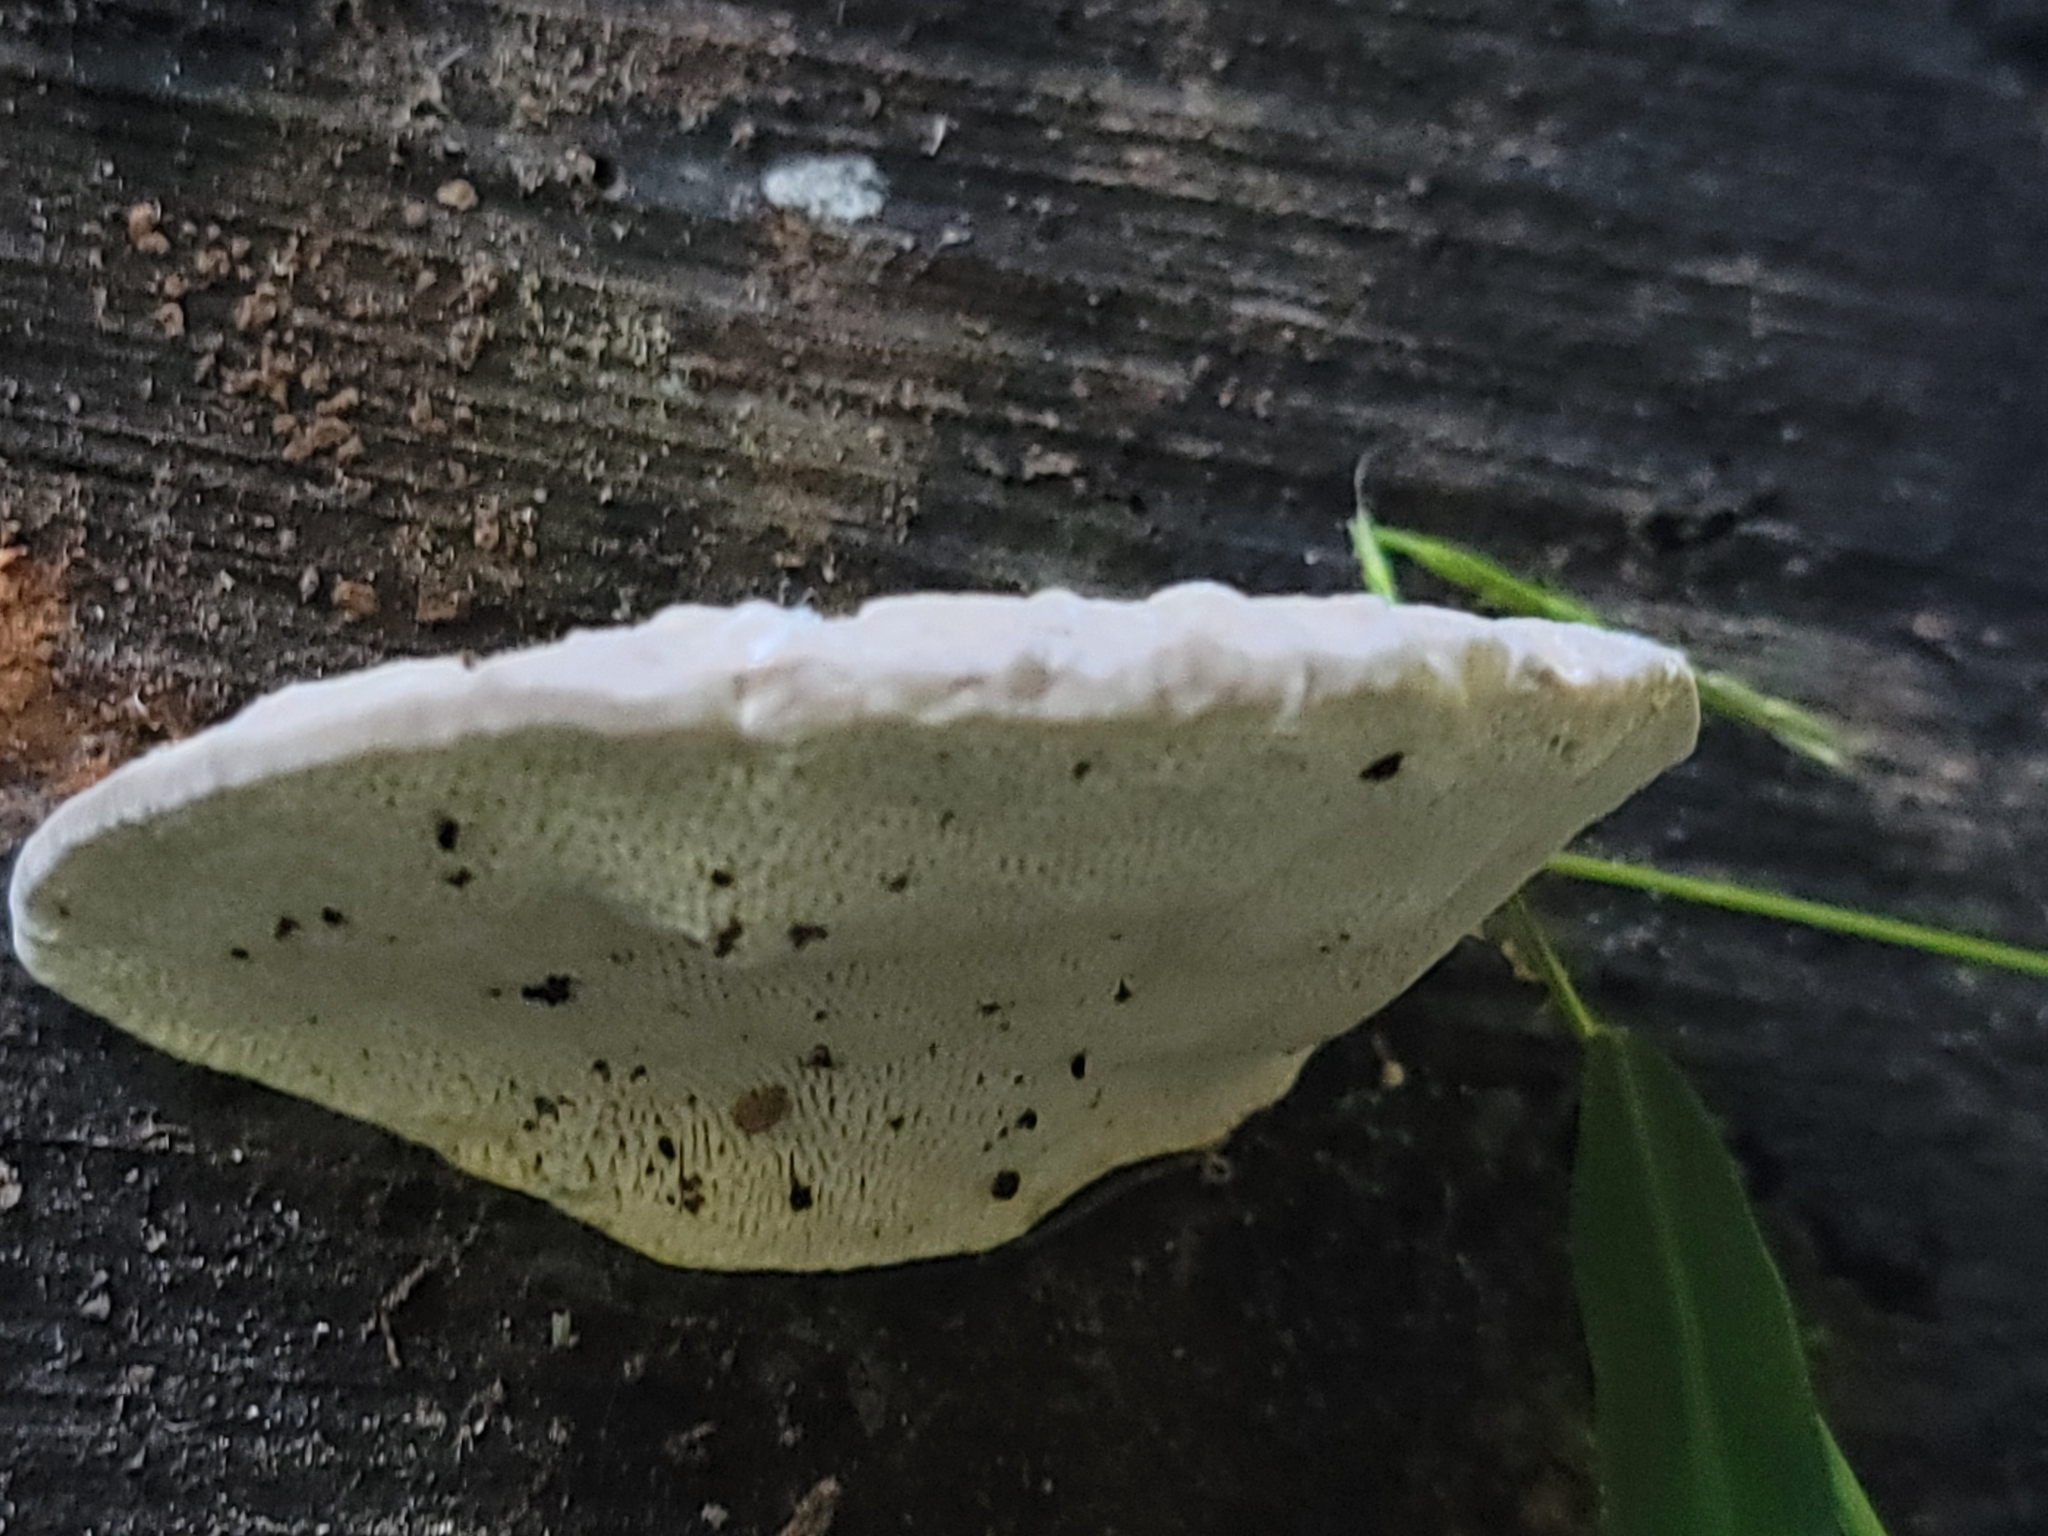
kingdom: Fungi
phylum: Basidiomycota
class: Agaricomycetes
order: Polyporales
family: Polyporaceae
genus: Trametes
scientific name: Trametes gibbosa
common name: Lumpy bracket
